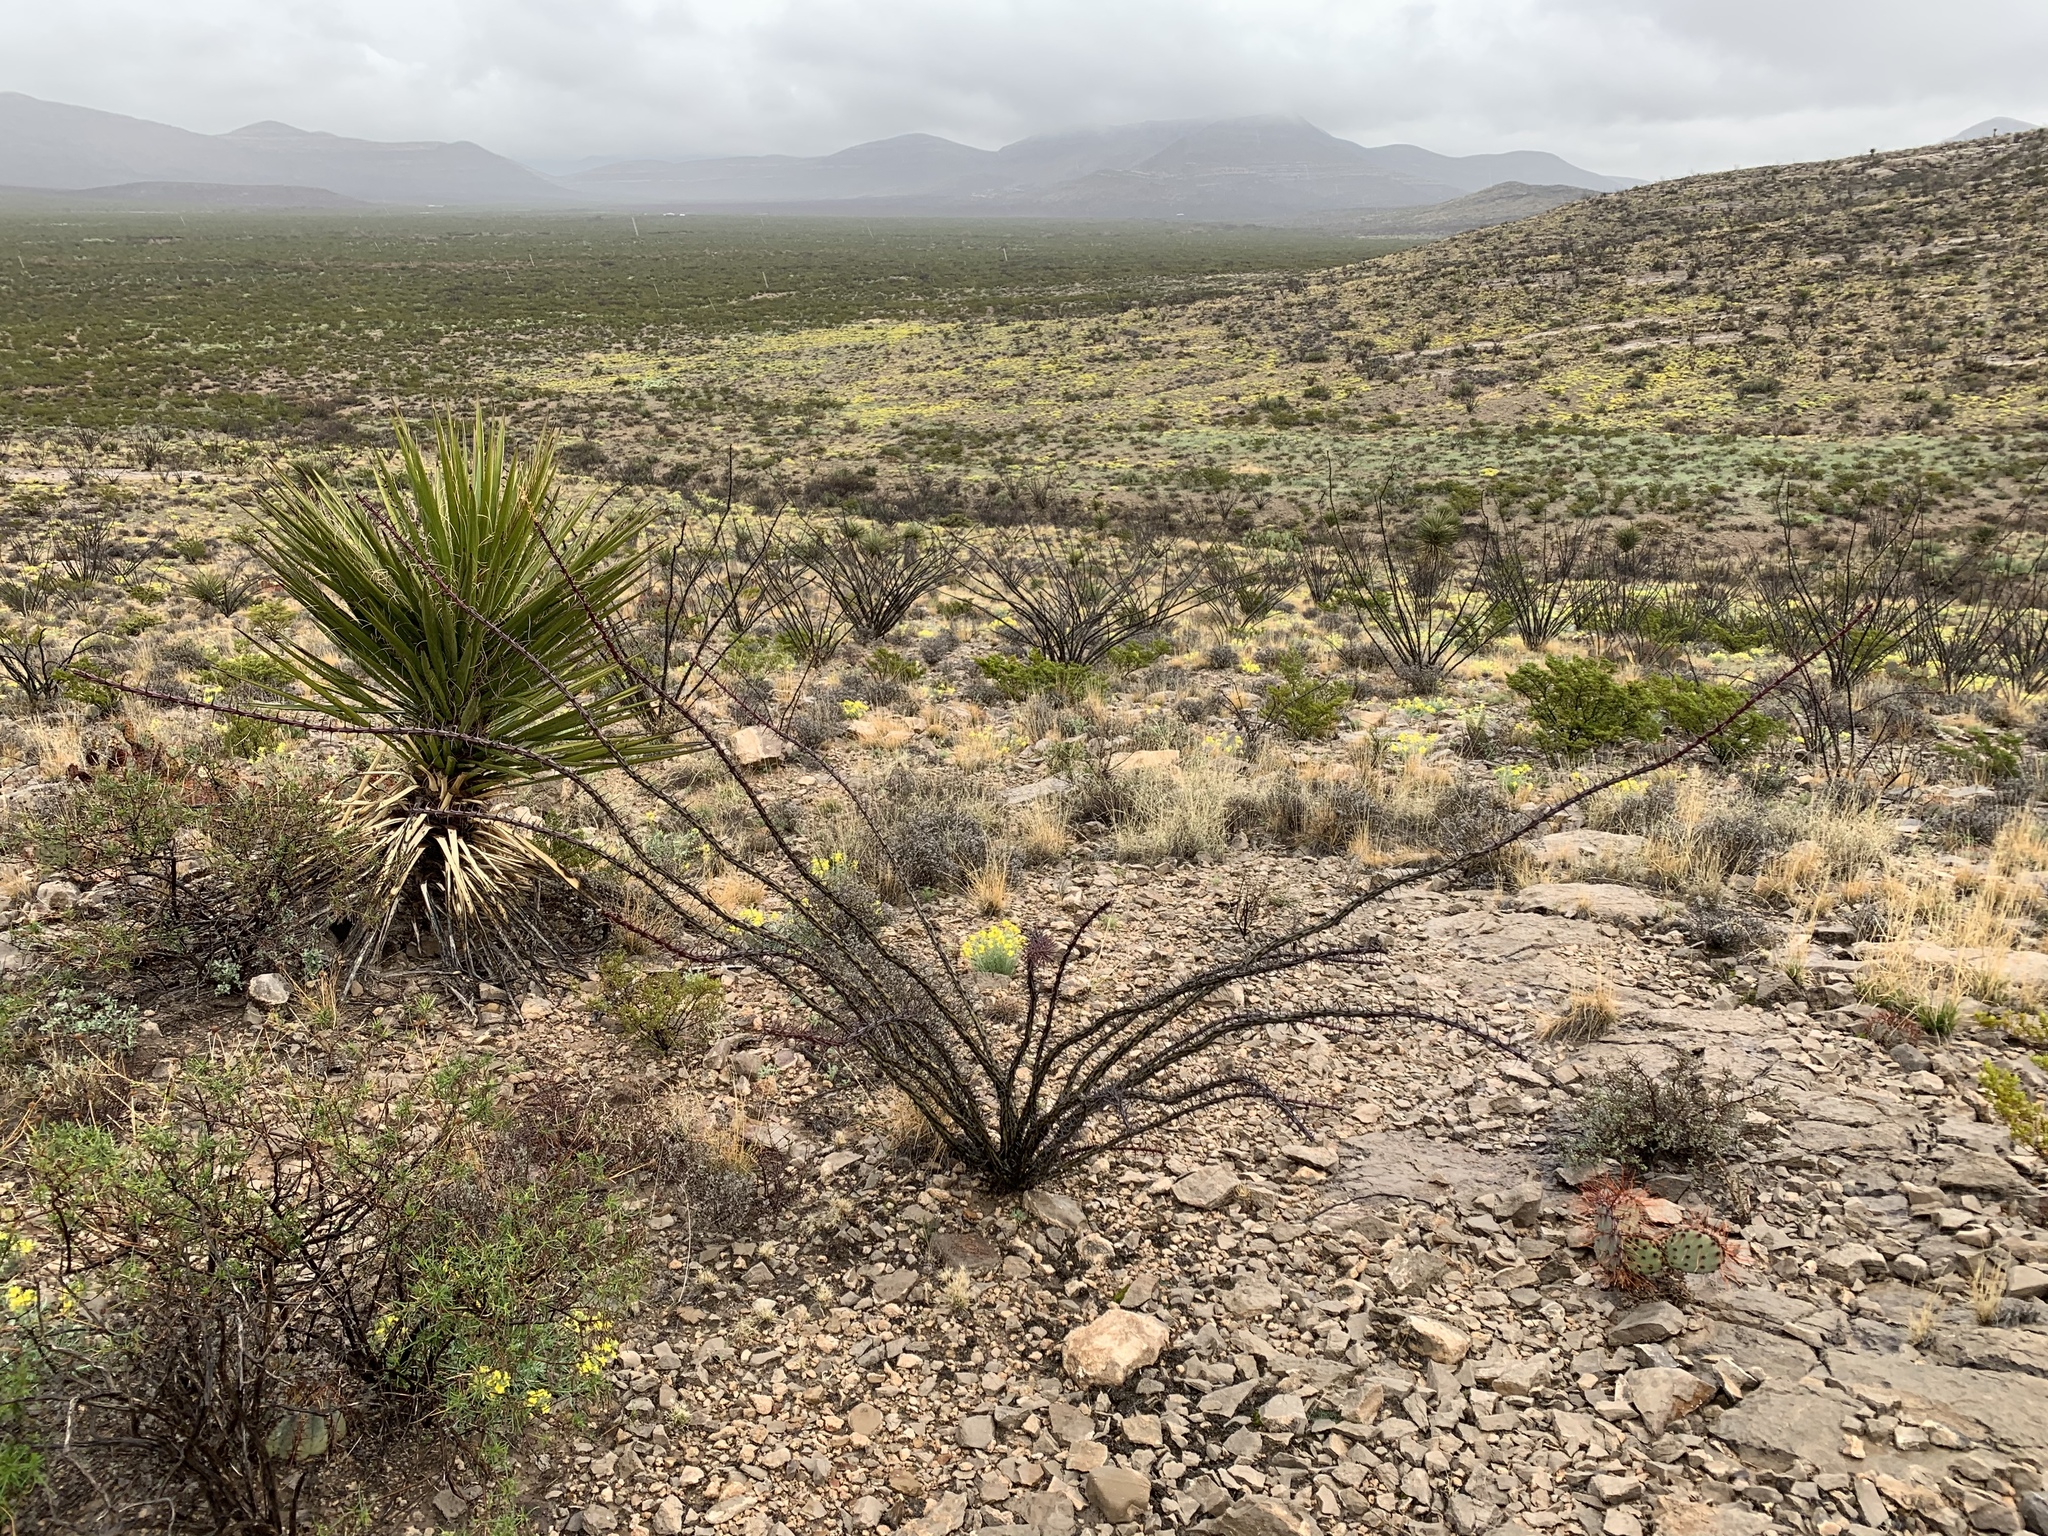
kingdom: Plantae
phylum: Tracheophyta
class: Magnoliopsida
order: Ericales
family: Fouquieriaceae
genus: Fouquieria
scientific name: Fouquieria splendens
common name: Vine-cactus
